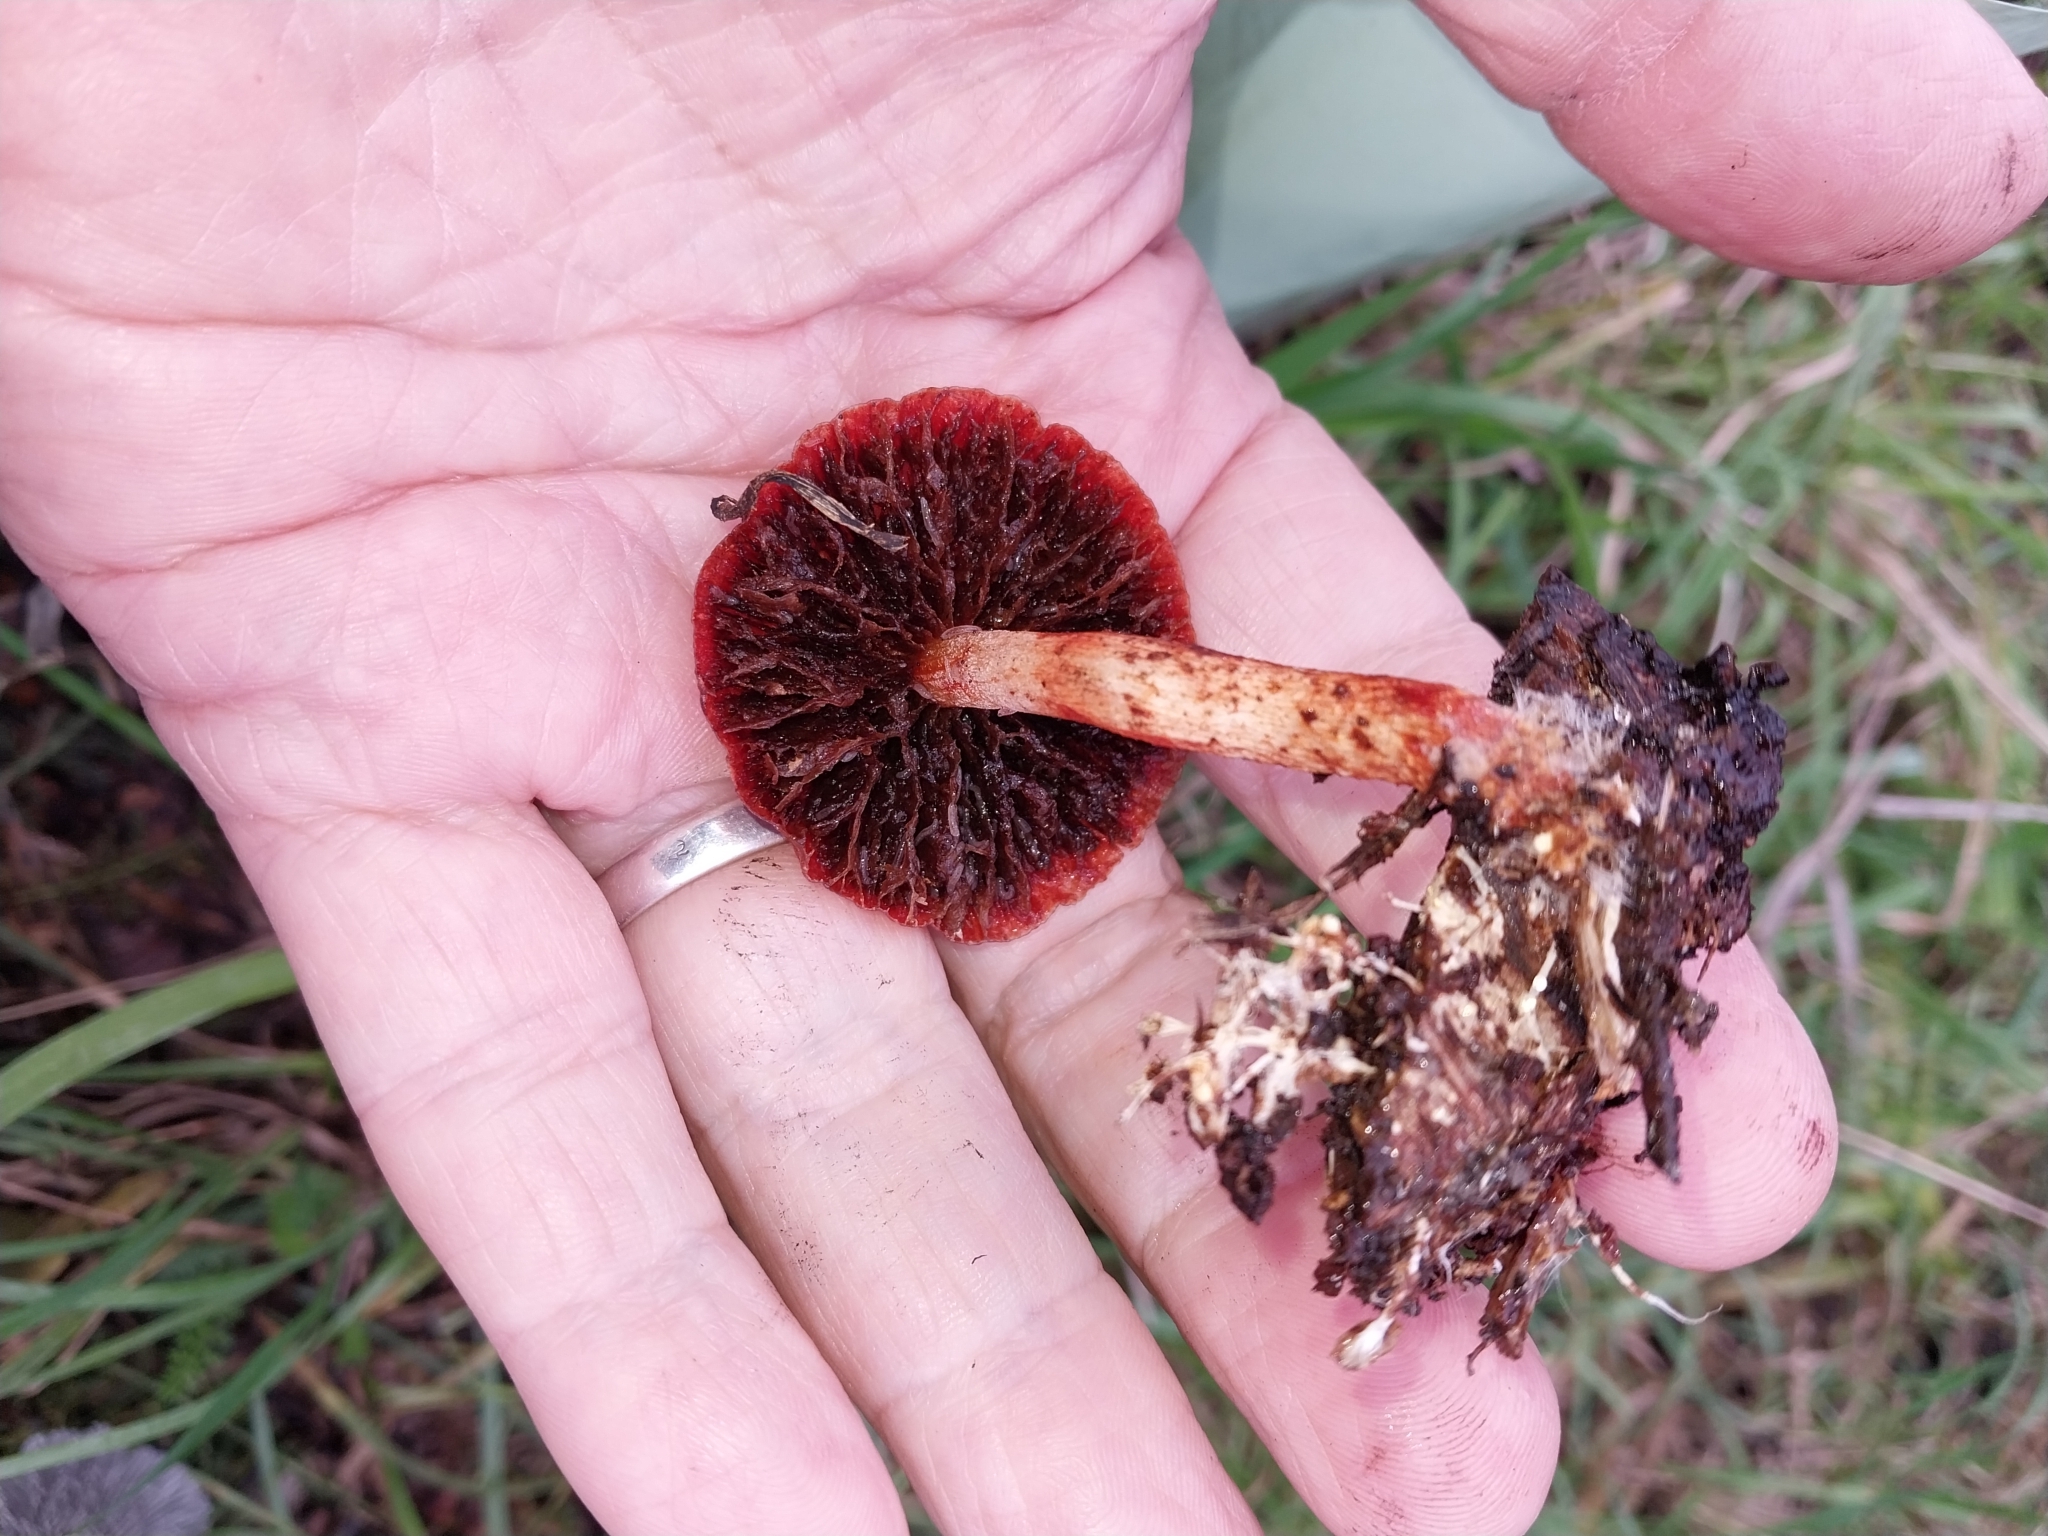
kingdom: Fungi
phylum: Basidiomycota
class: Agaricomycetes
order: Agaricales
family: Strophariaceae
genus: Leratiomyces
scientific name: Leratiomyces ceres
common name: Redlead roundhead
